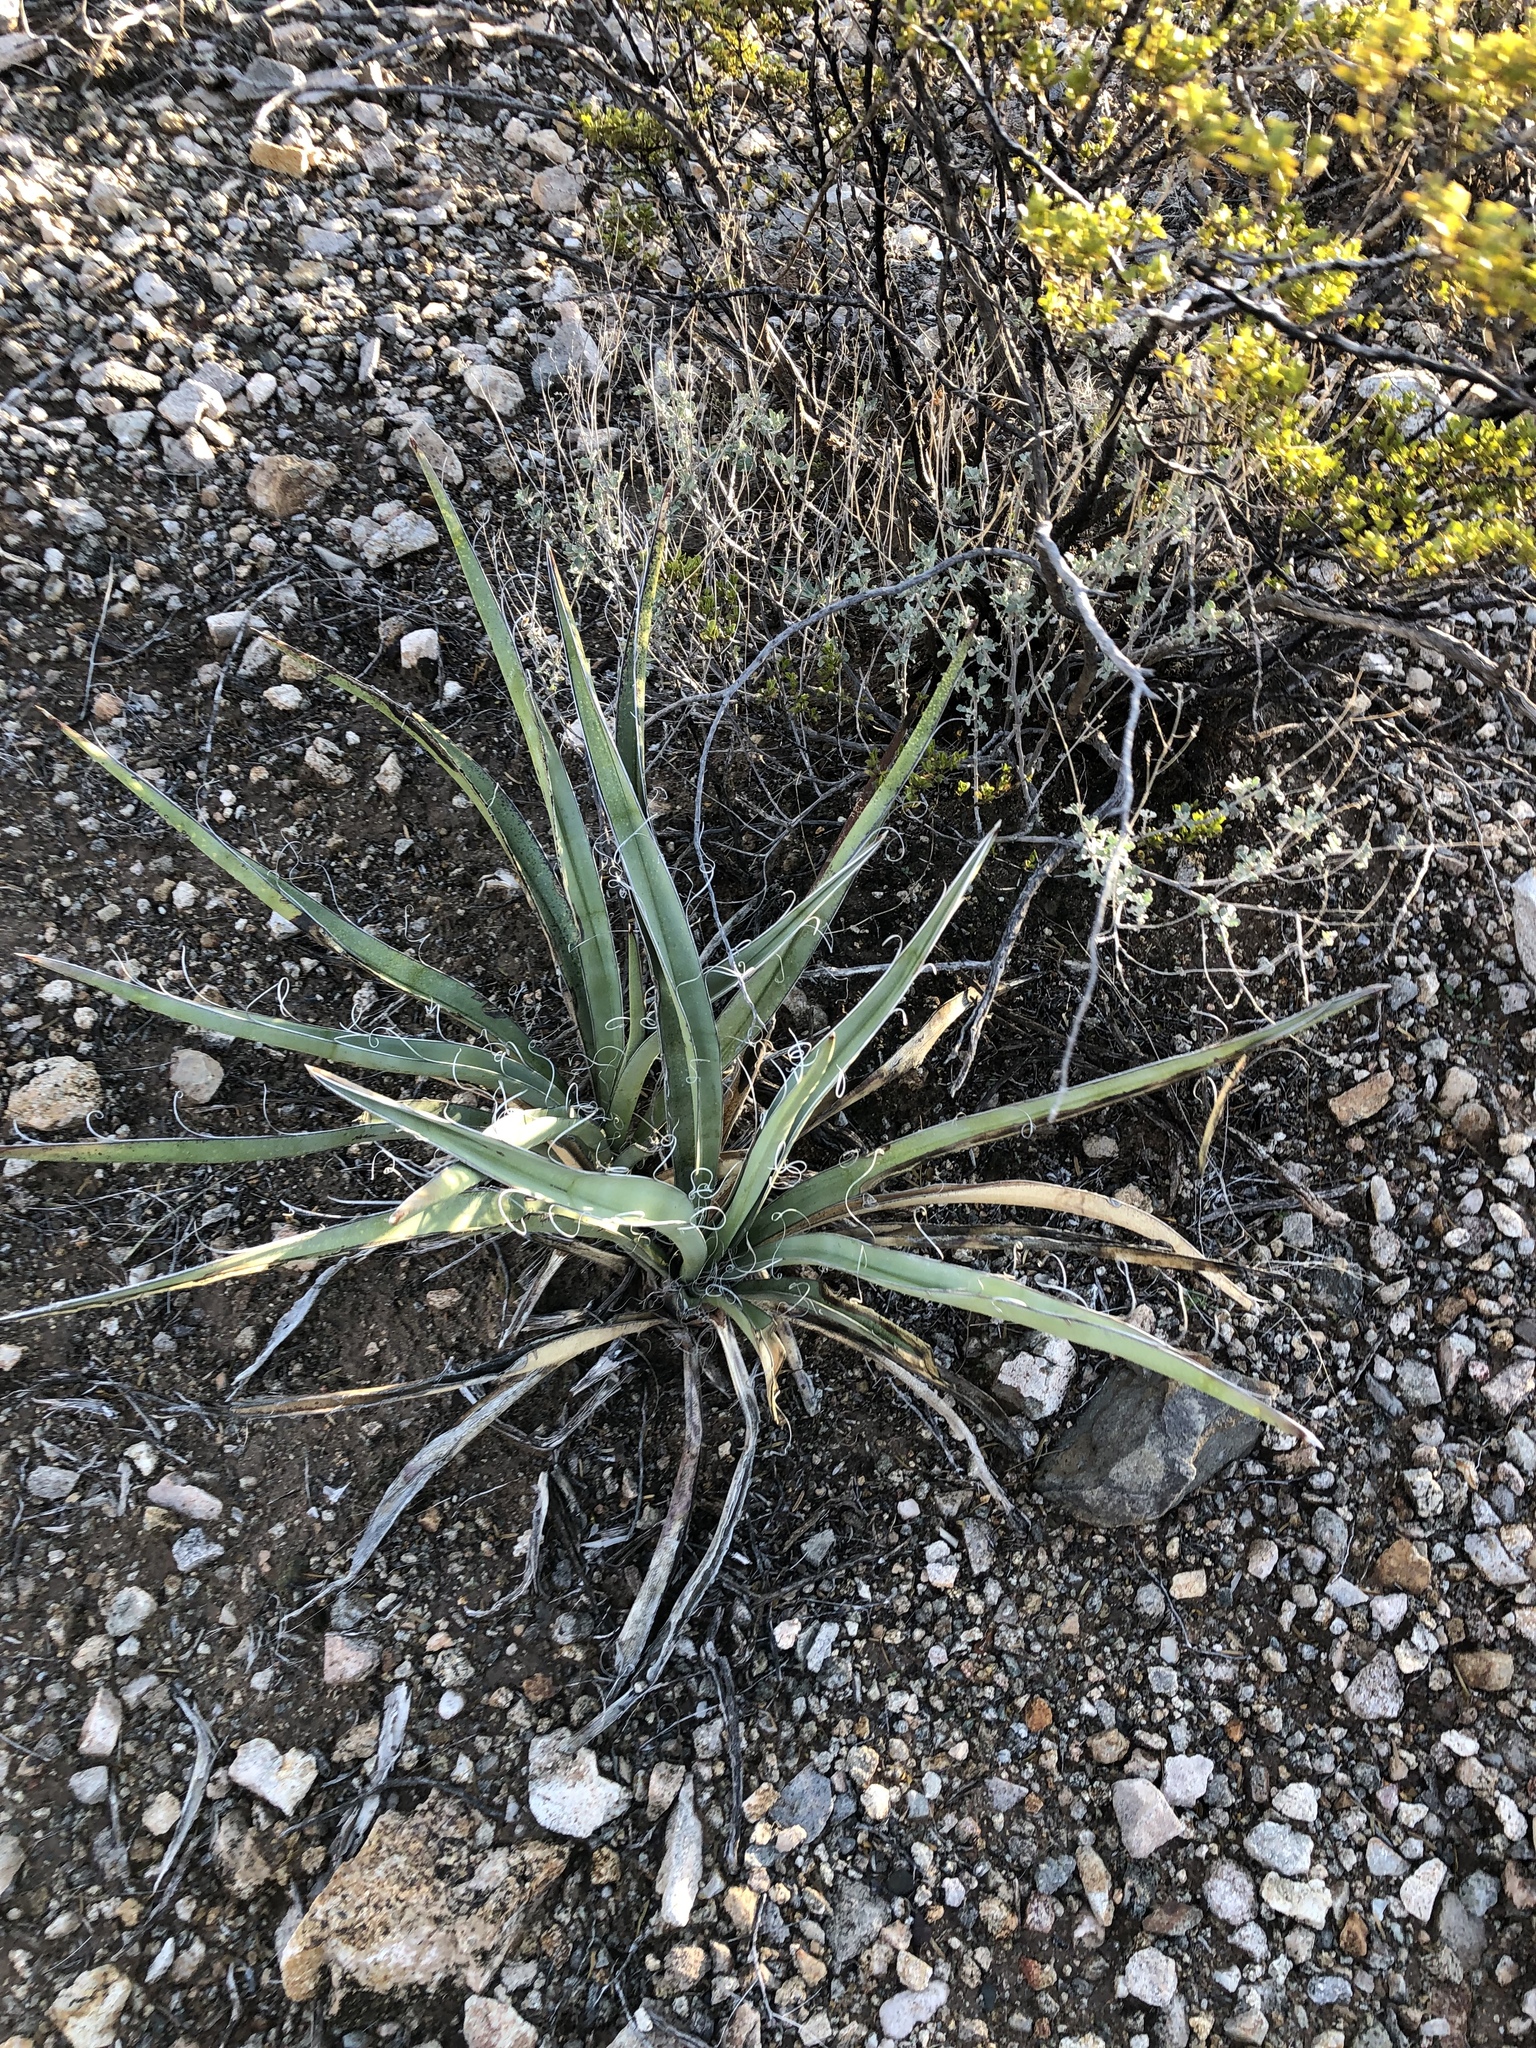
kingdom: Plantae
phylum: Tracheophyta
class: Liliopsida
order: Asparagales
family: Asparagaceae
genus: Yucca
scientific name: Yucca baccata
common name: Banana yucca
